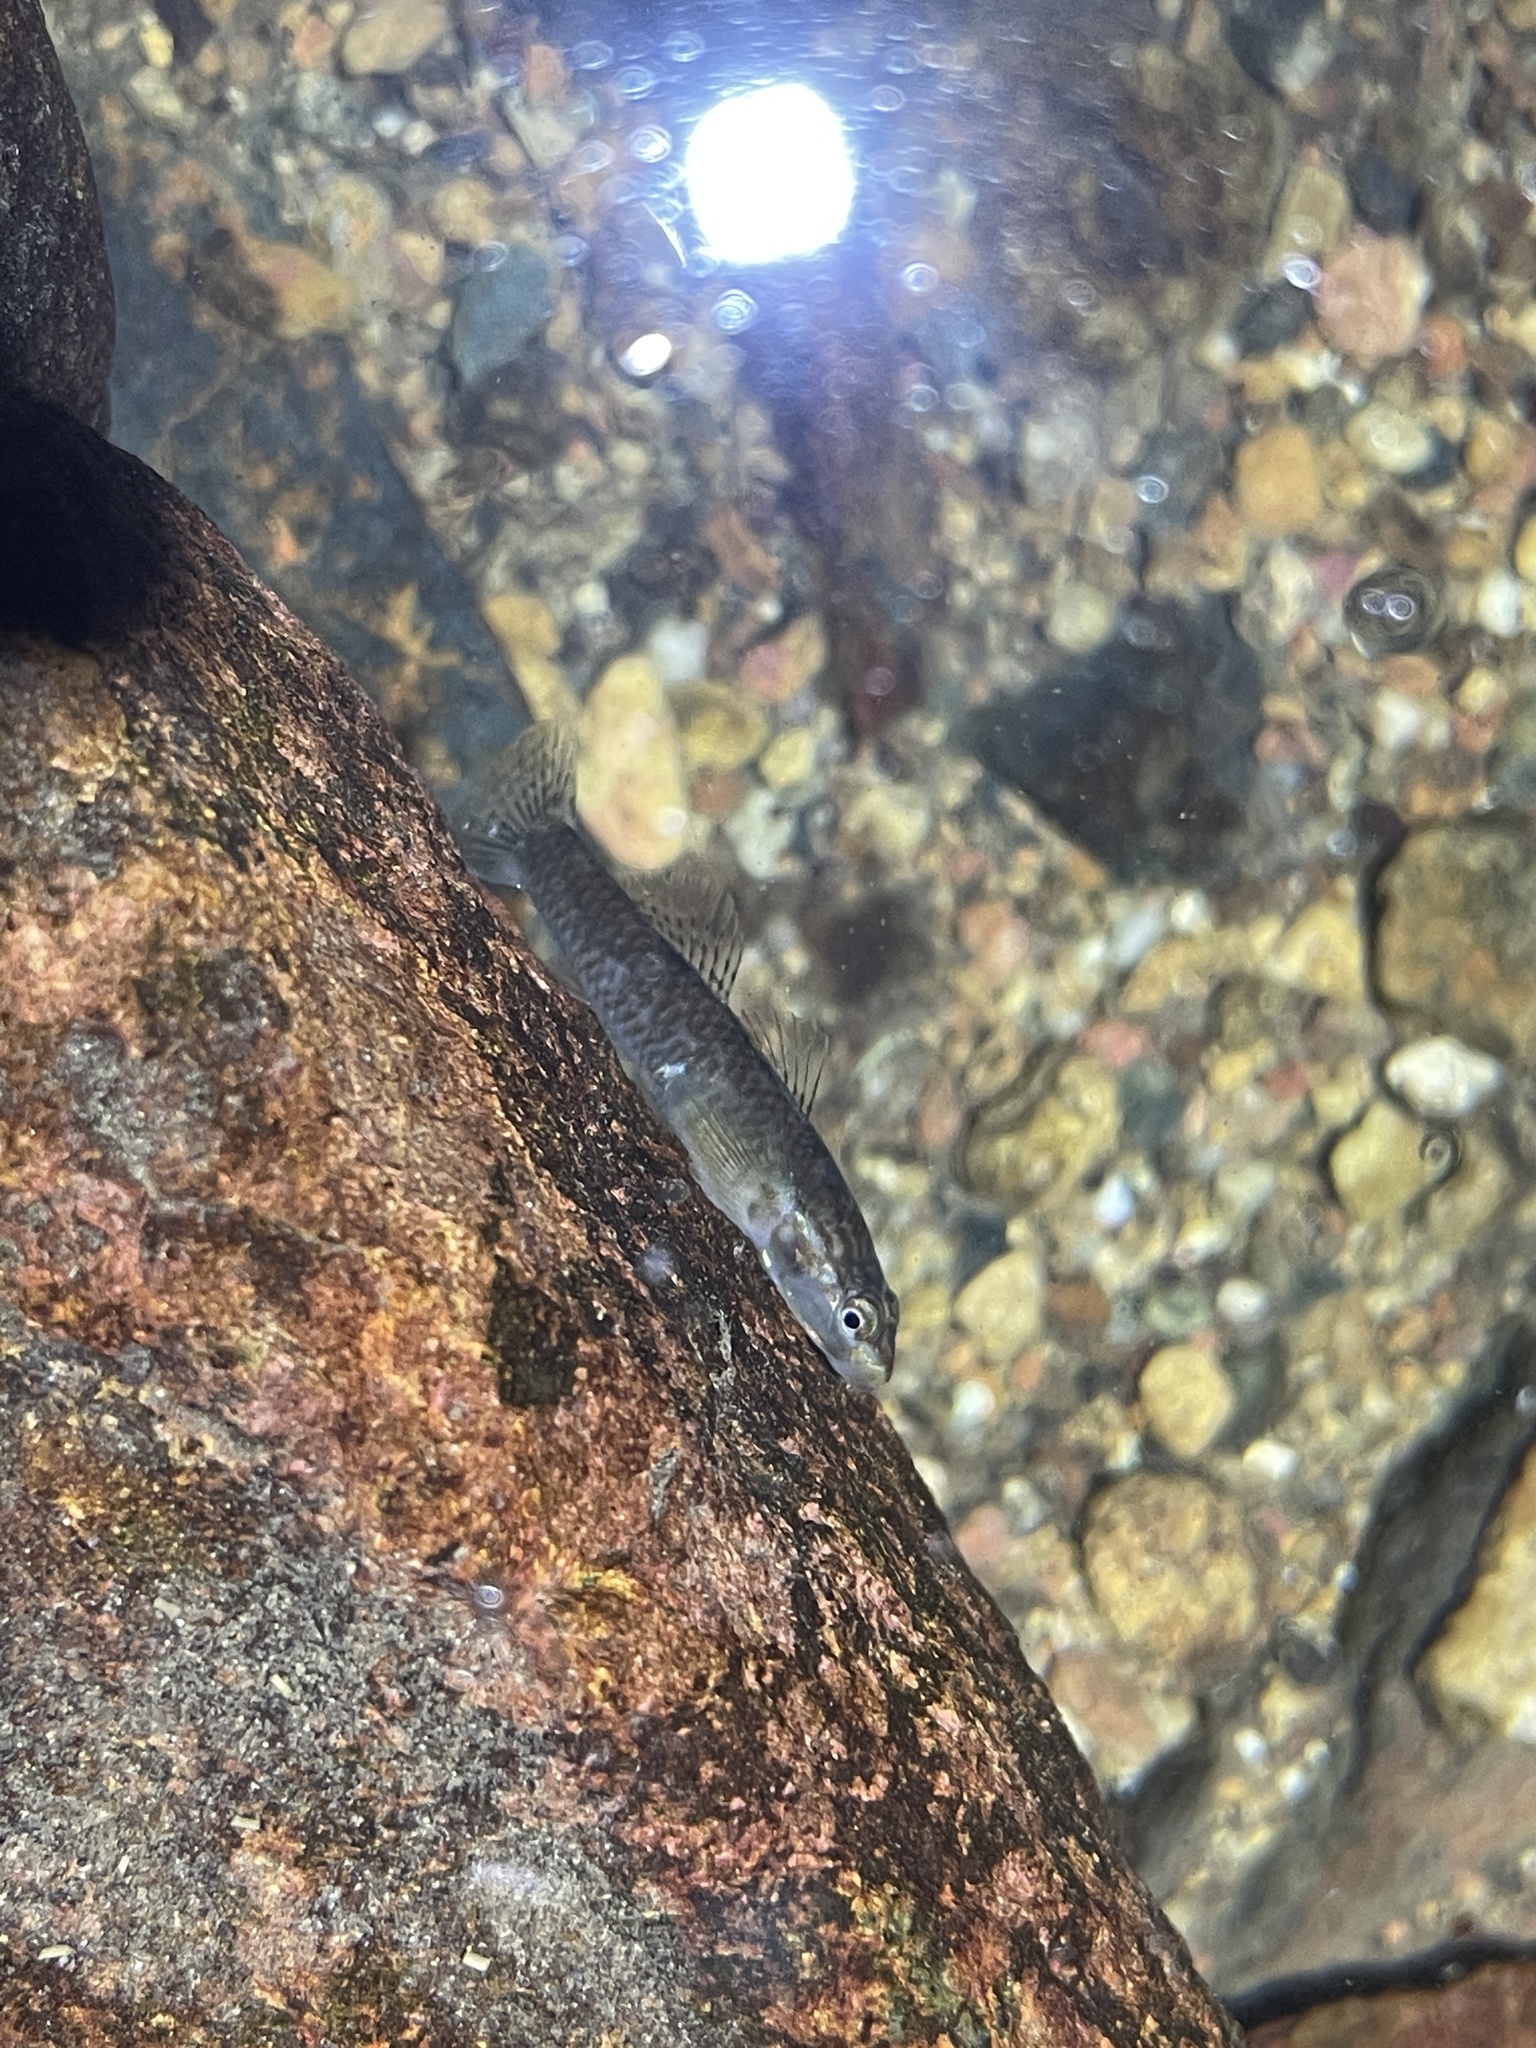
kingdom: Animalia
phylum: Chordata
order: Perciformes
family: Gobiidae
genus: Rhinogobius
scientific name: Rhinogobius duospilus
